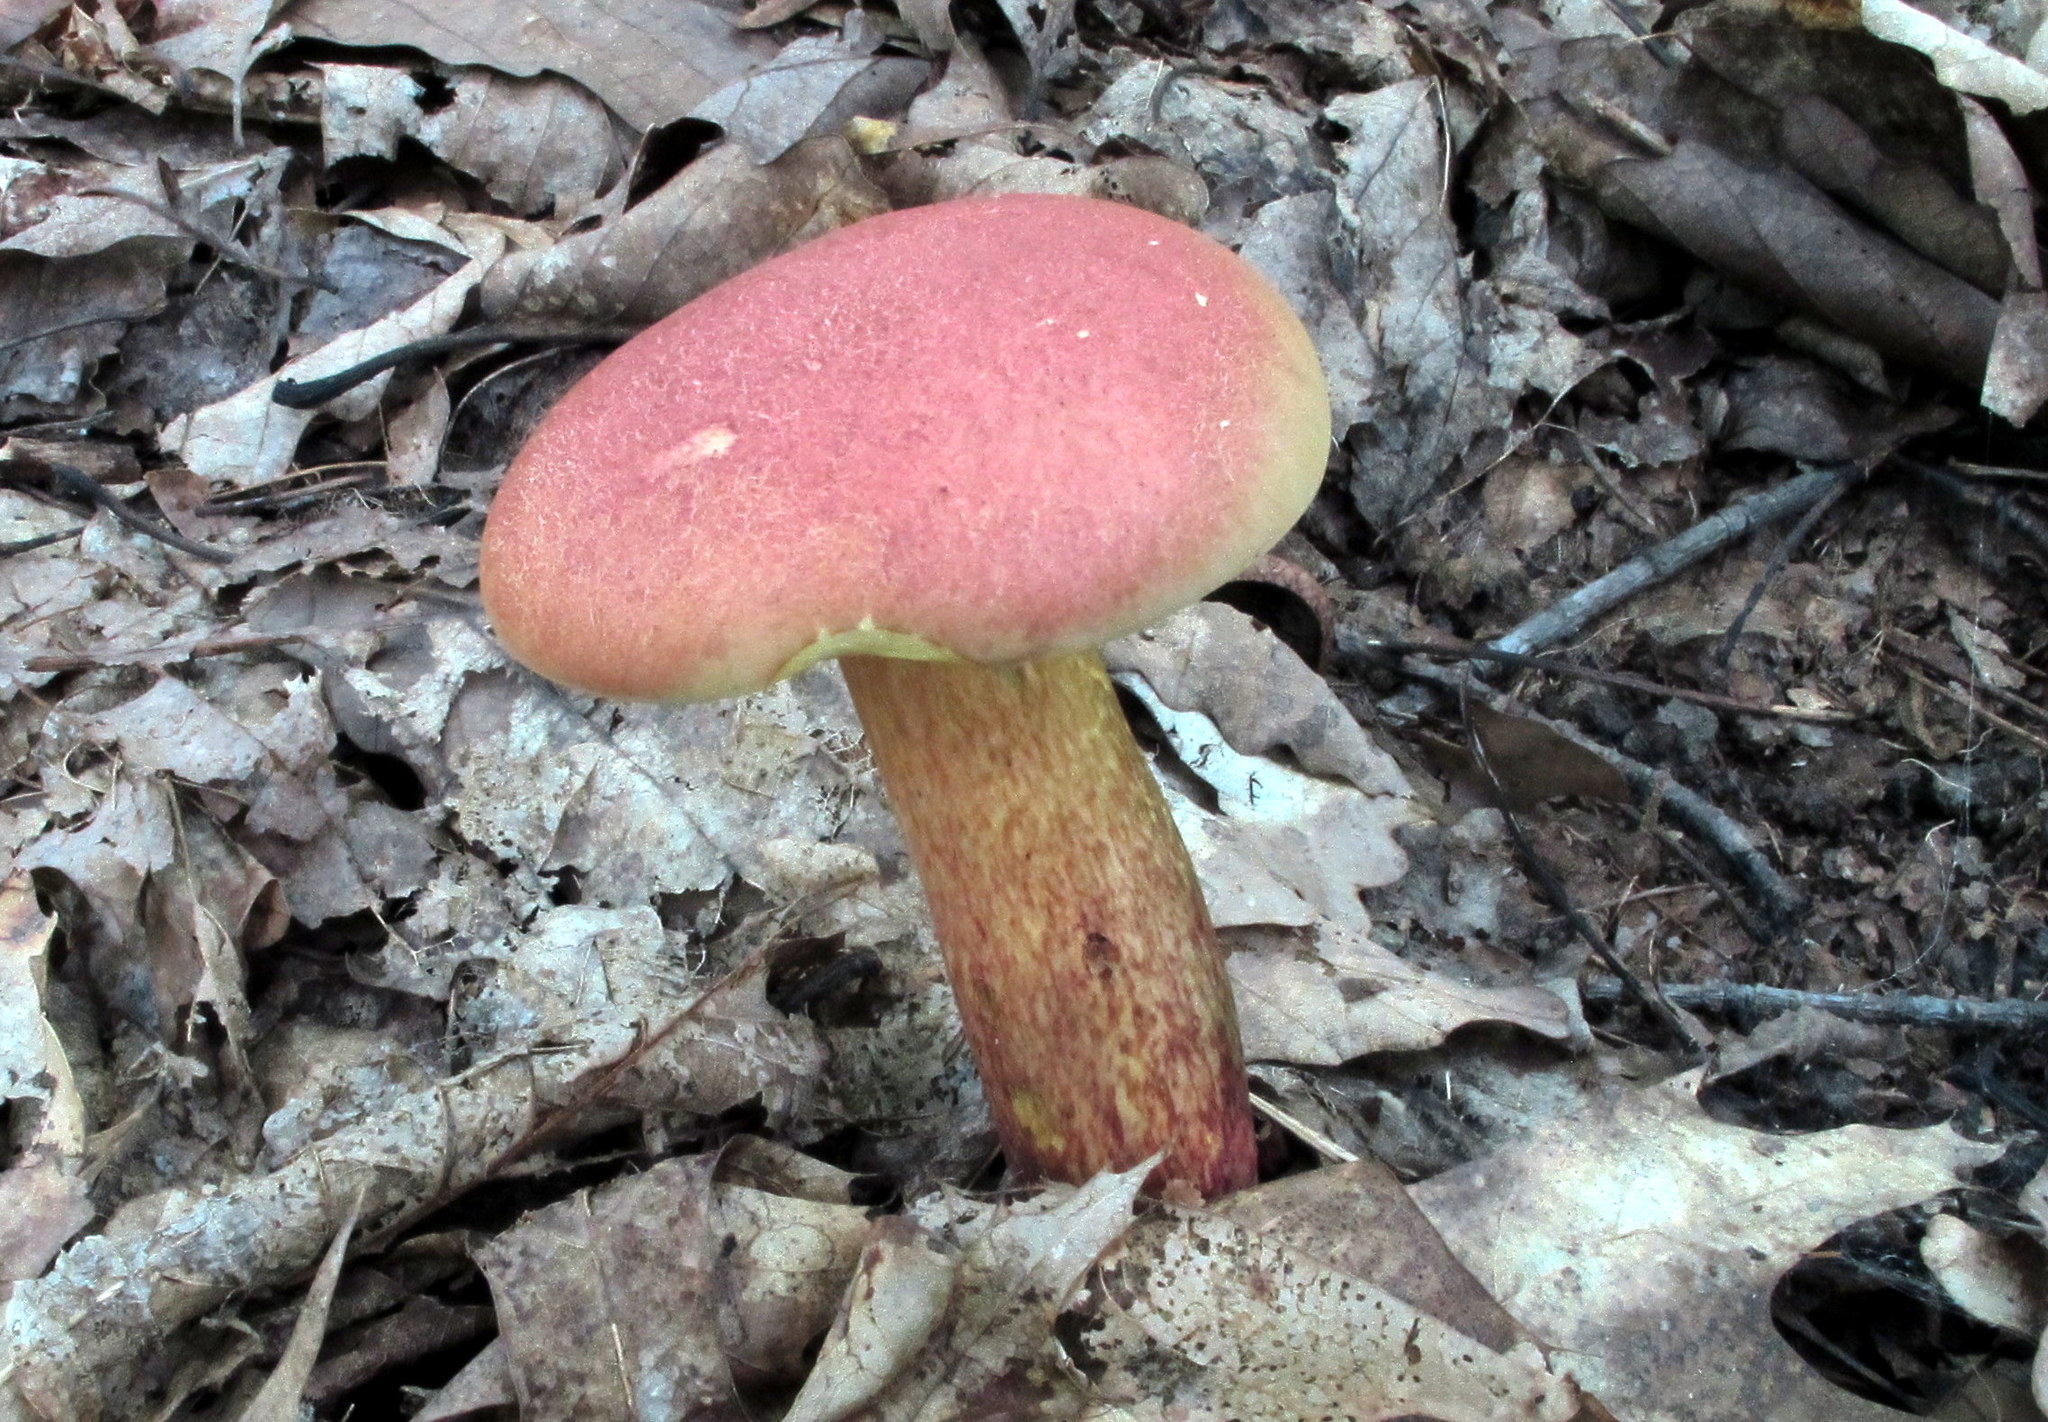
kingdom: Fungi
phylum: Basidiomycota
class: Agaricomycetes
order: Boletales
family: Boletaceae
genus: Baorangia
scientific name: Baorangia bicolor
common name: Two-colored bolete
